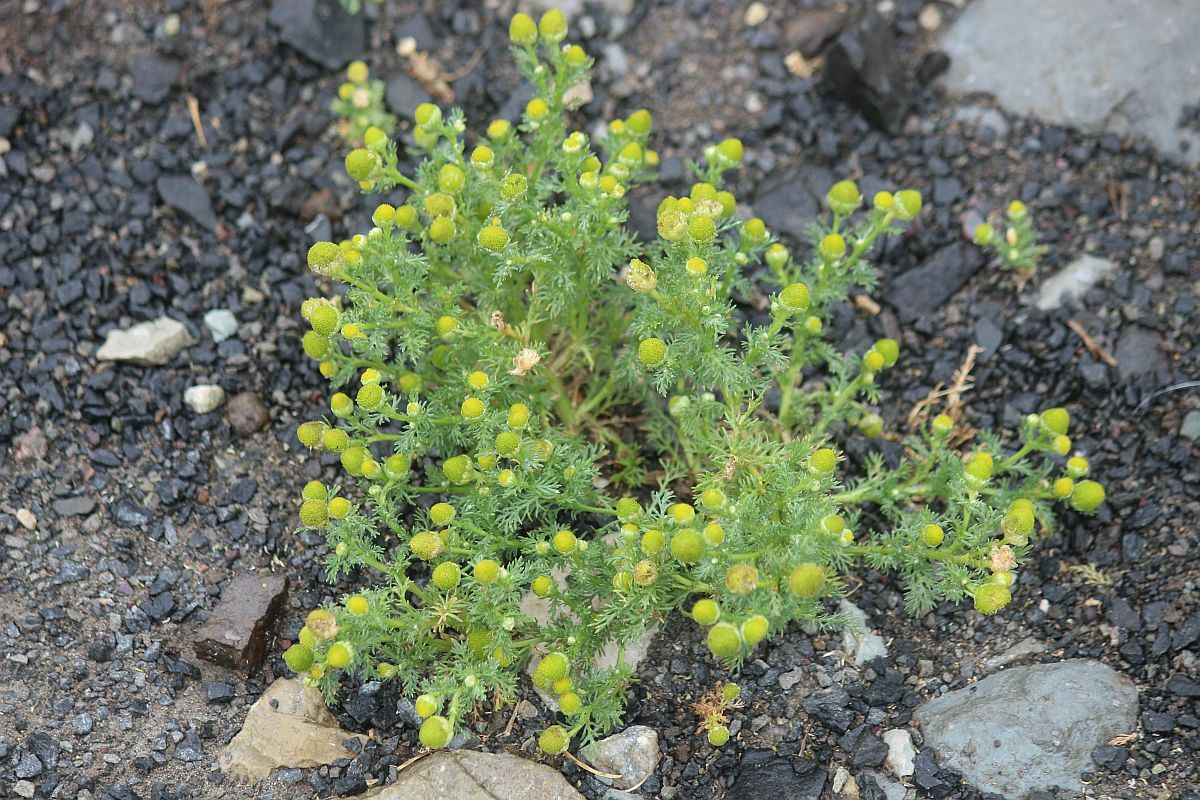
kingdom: Plantae
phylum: Tracheophyta
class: Magnoliopsida
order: Asterales
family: Asteraceae
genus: Matricaria
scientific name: Matricaria discoidea
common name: Disc mayweed
